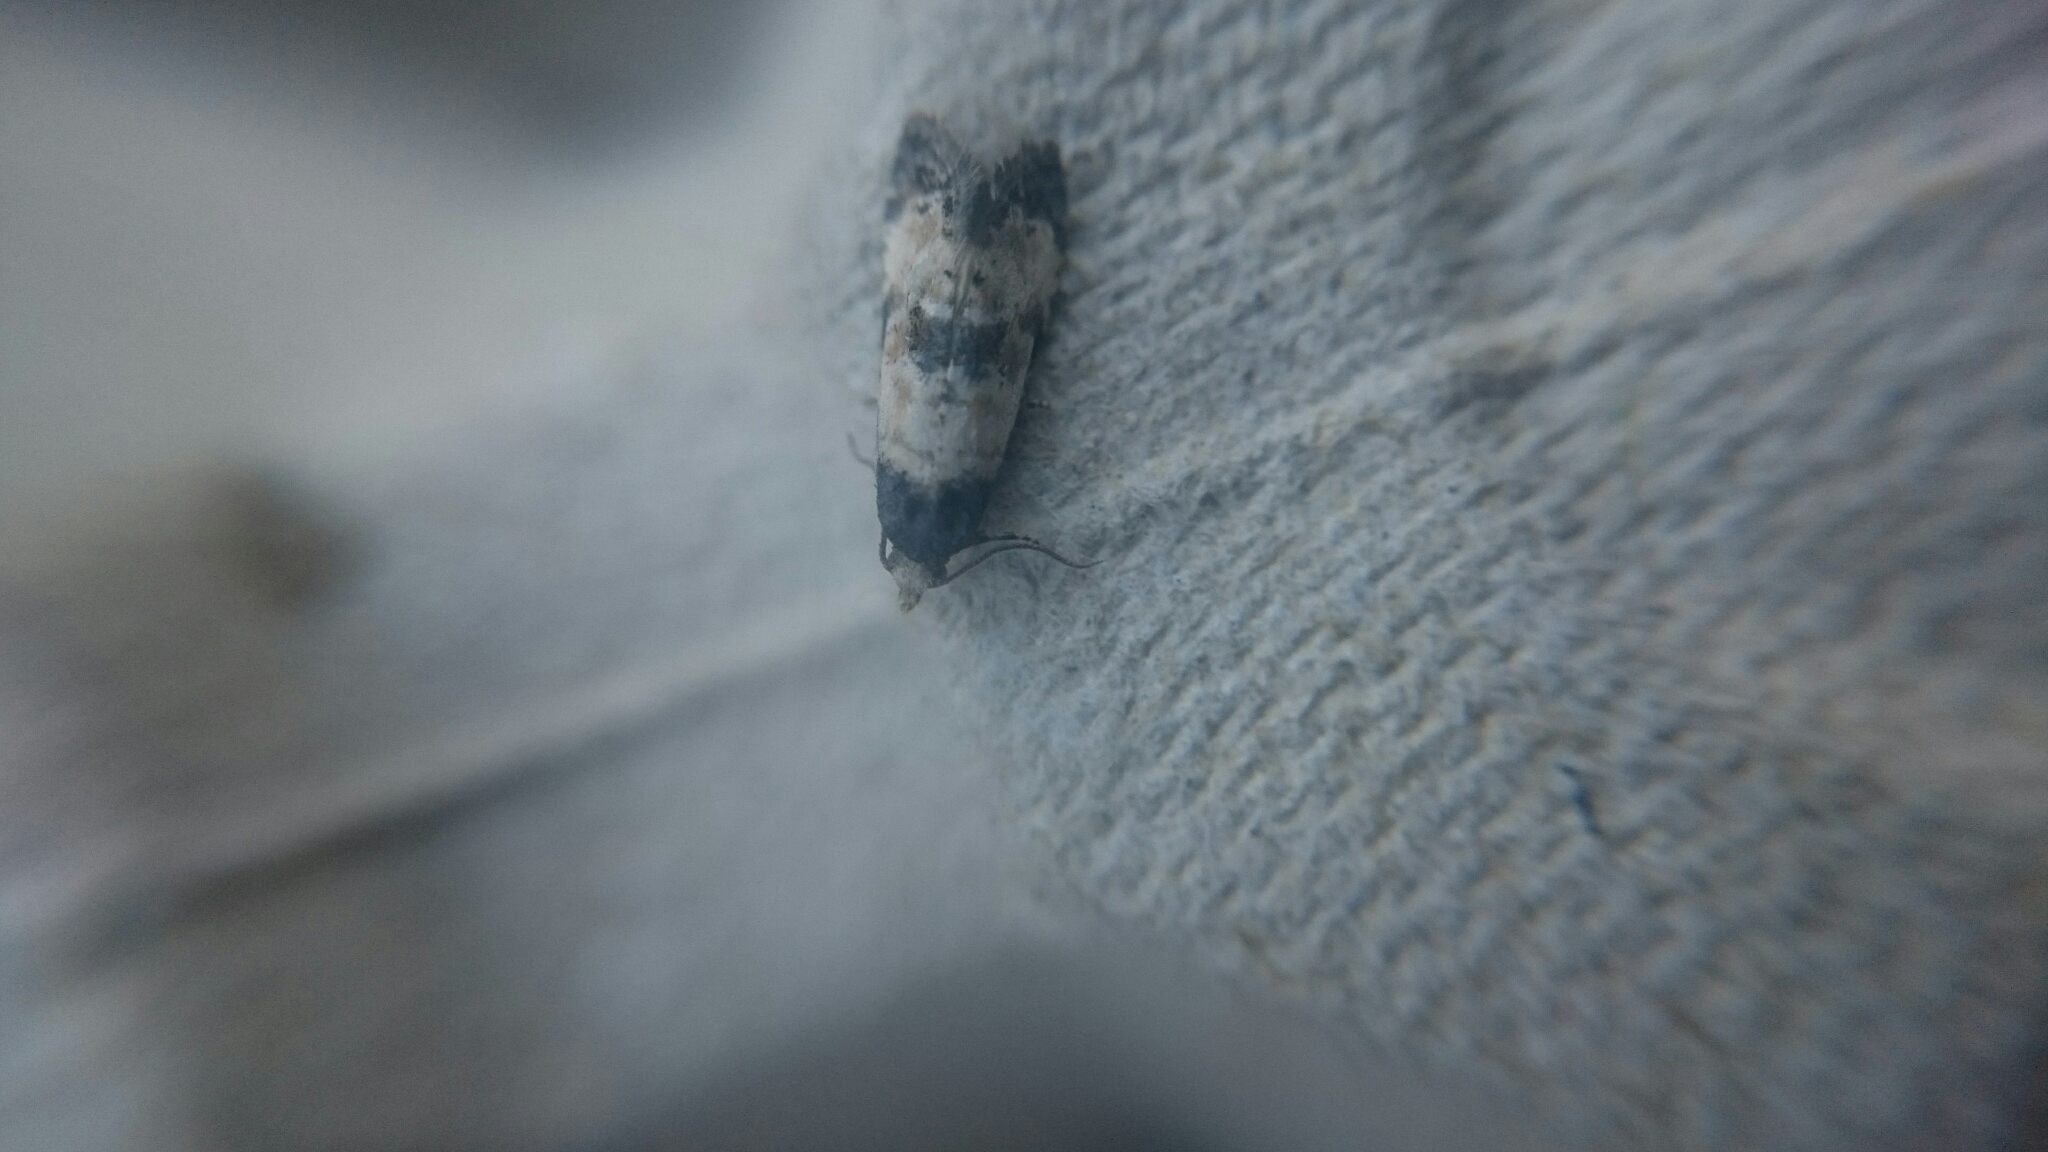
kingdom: Animalia
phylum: Arthropoda
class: Insecta
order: Lepidoptera
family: Tortricidae
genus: Cochylis
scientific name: Cochylis dubitana
